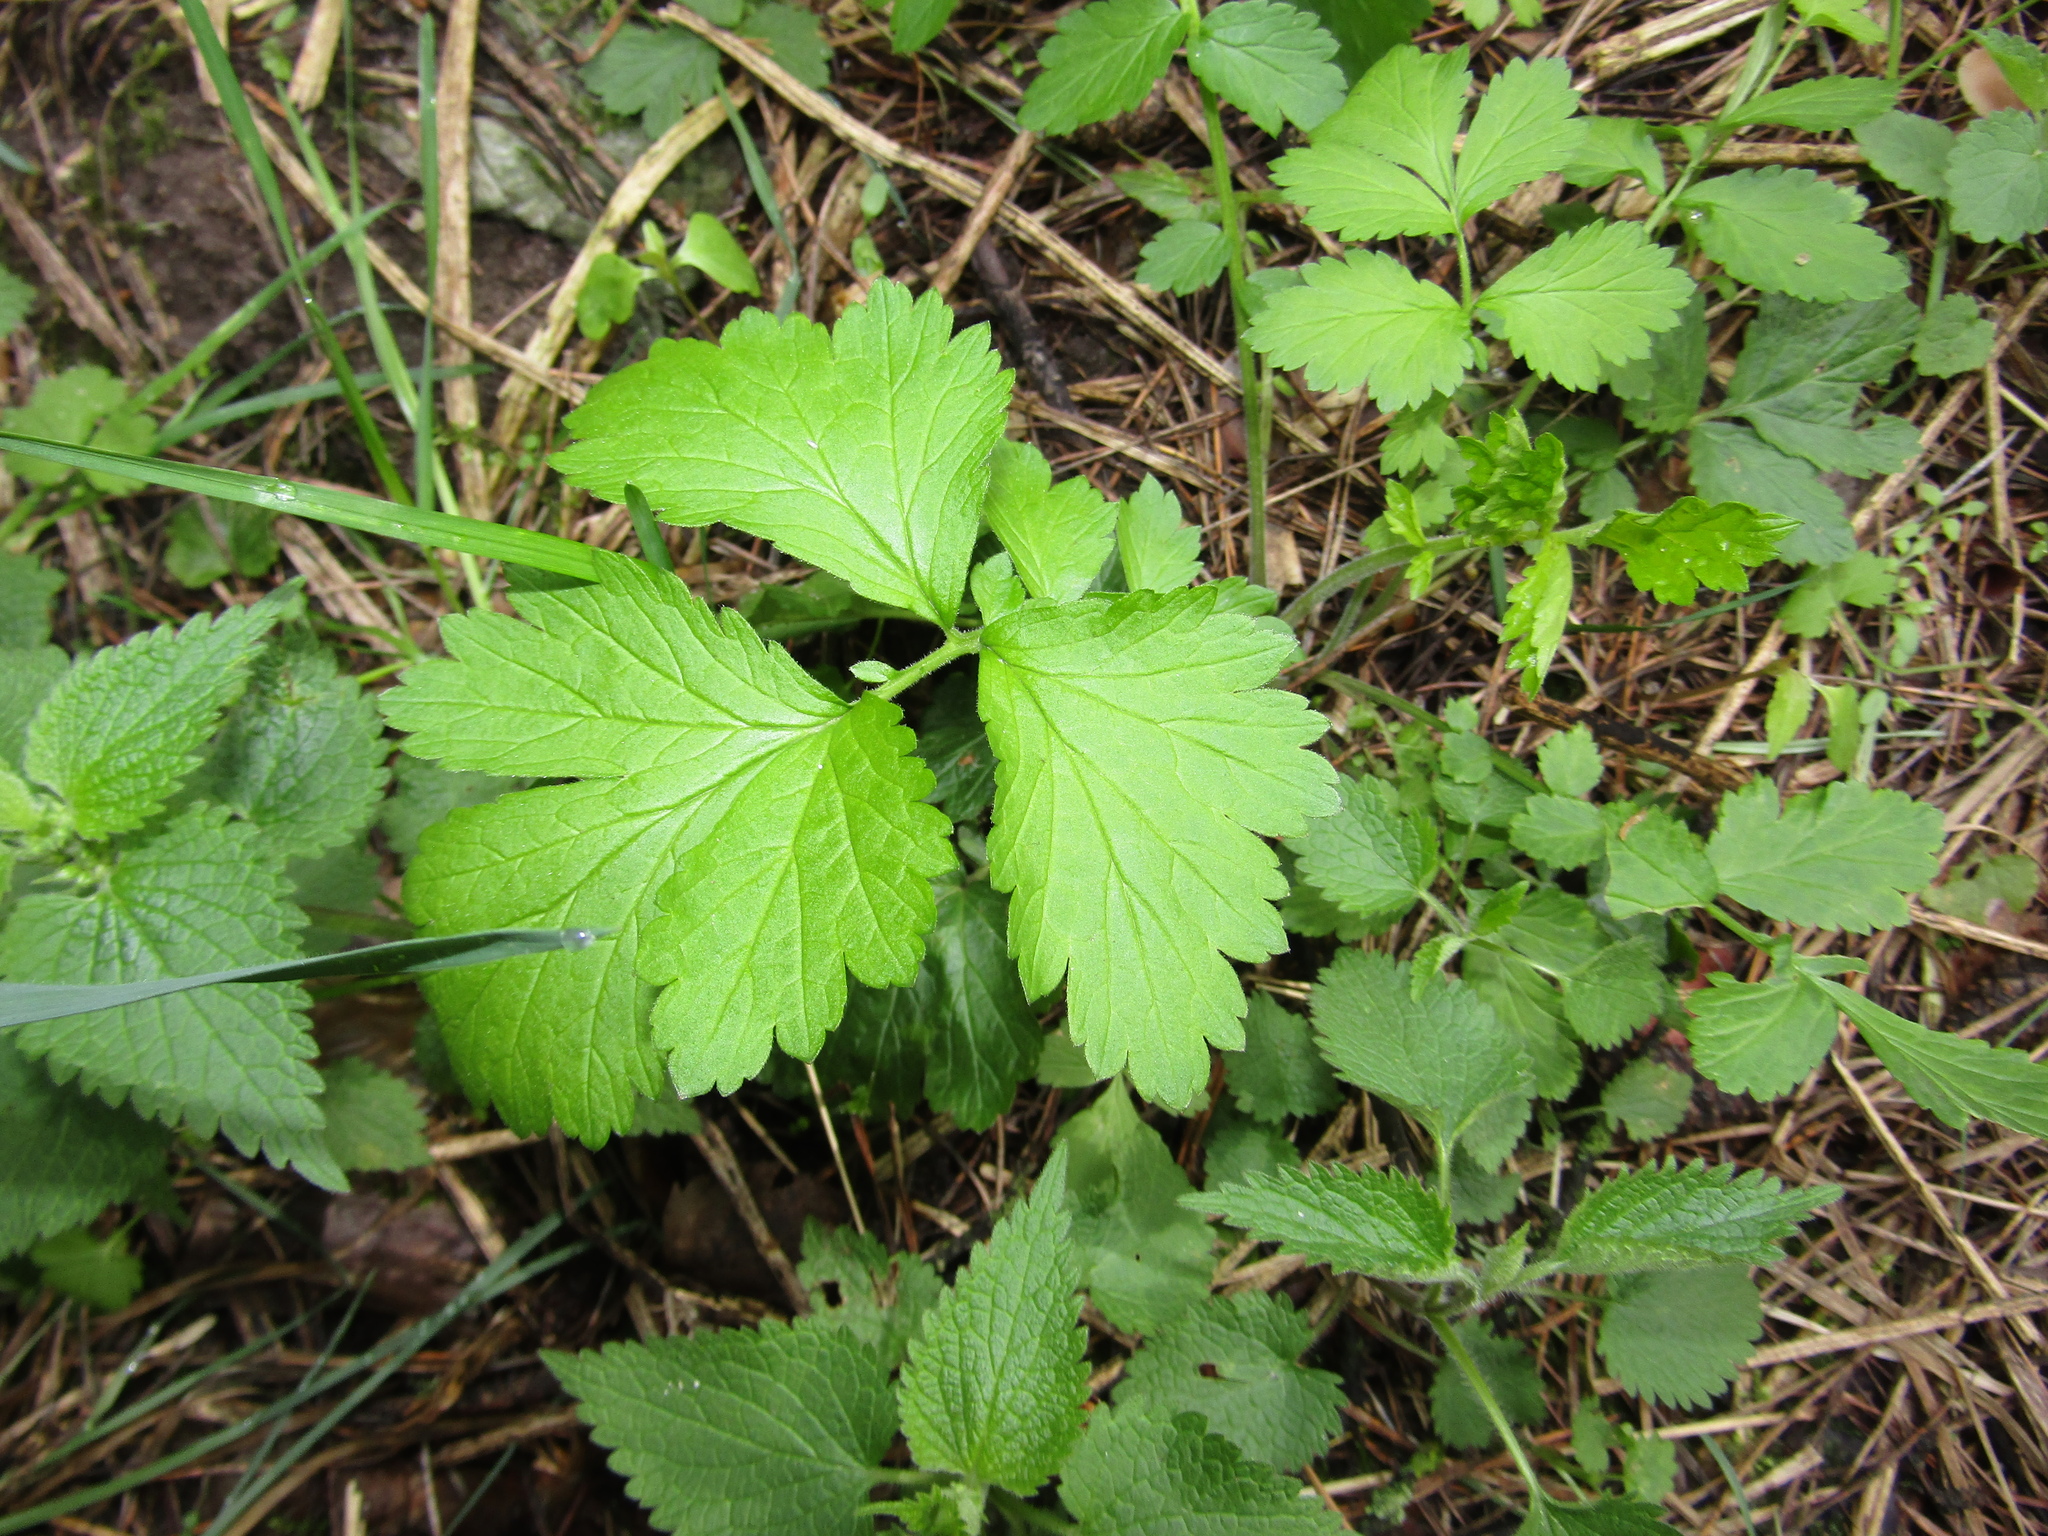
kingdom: Plantae
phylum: Tracheophyta
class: Magnoliopsida
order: Rosales
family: Rosaceae
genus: Geum
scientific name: Geum
